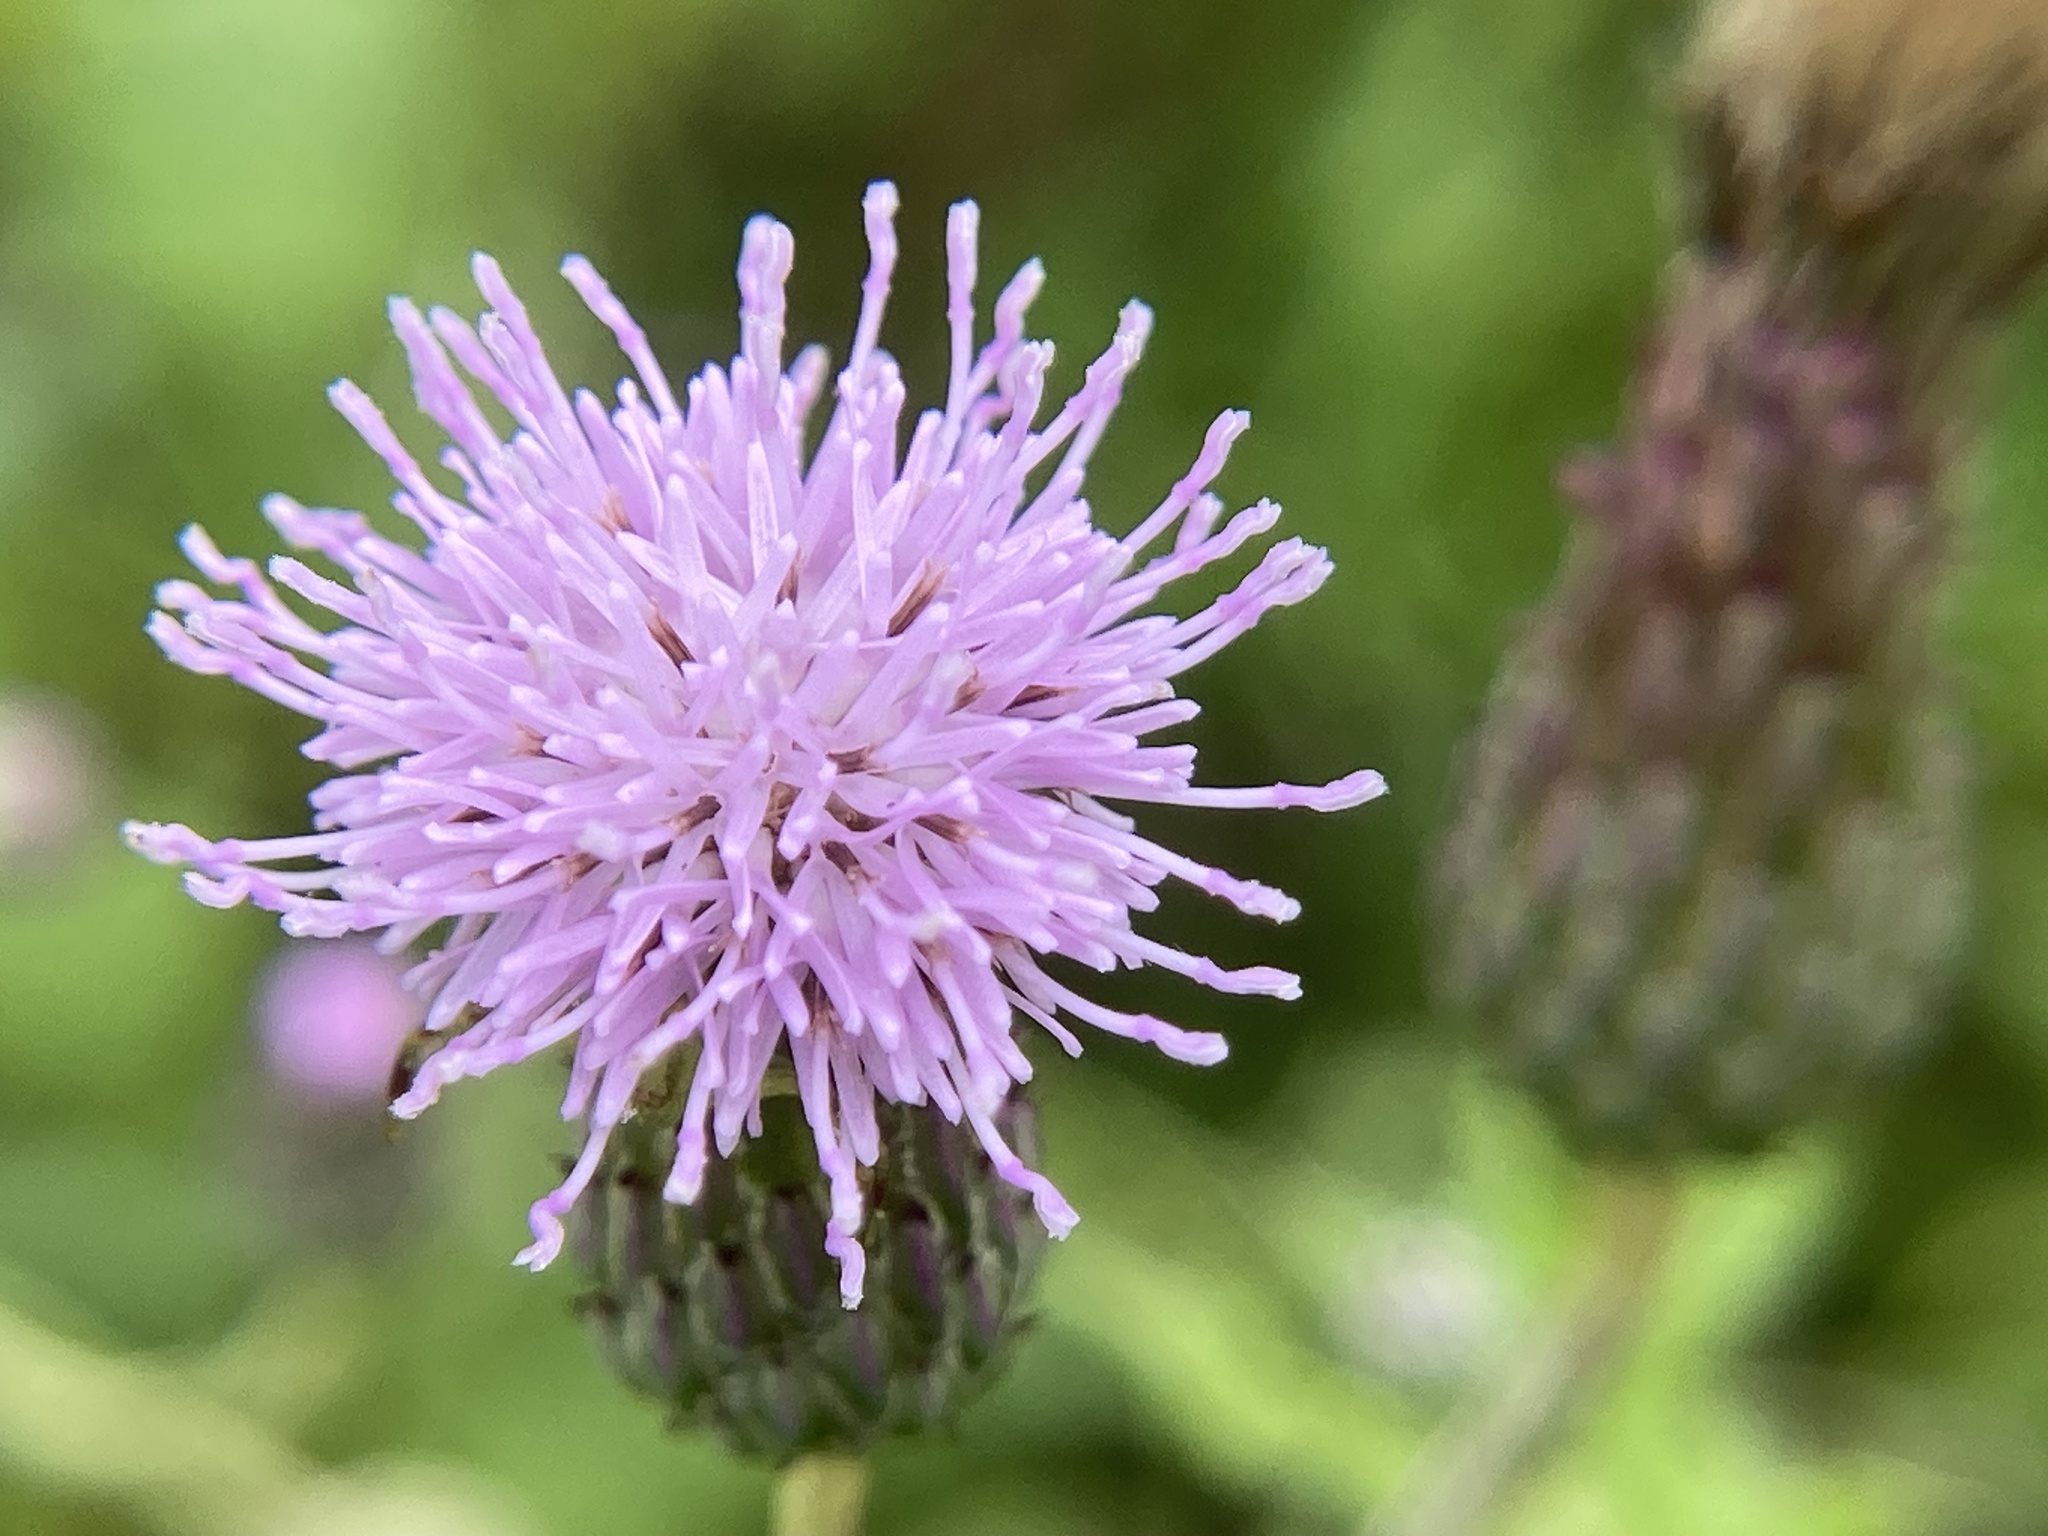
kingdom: Plantae
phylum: Tracheophyta
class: Magnoliopsida
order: Asterales
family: Asteraceae
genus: Cirsium
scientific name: Cirsium arvense
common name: Creeping thistle
